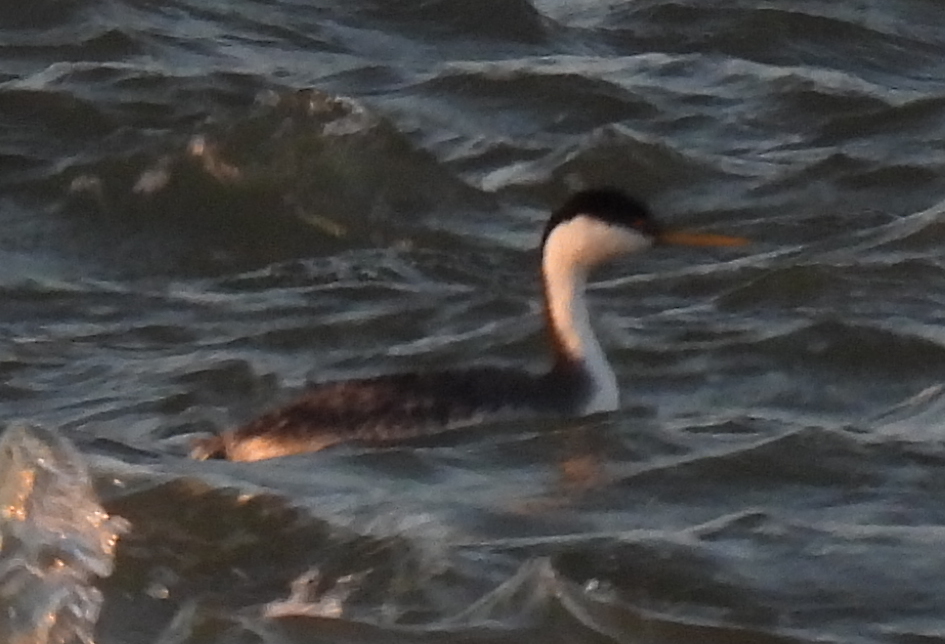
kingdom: Animalia
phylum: Chordata
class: Aves
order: Podicipediformes
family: Podicipedidae
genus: Aechmophorus
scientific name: Aechmophorus occidentalis
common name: Western grebe
